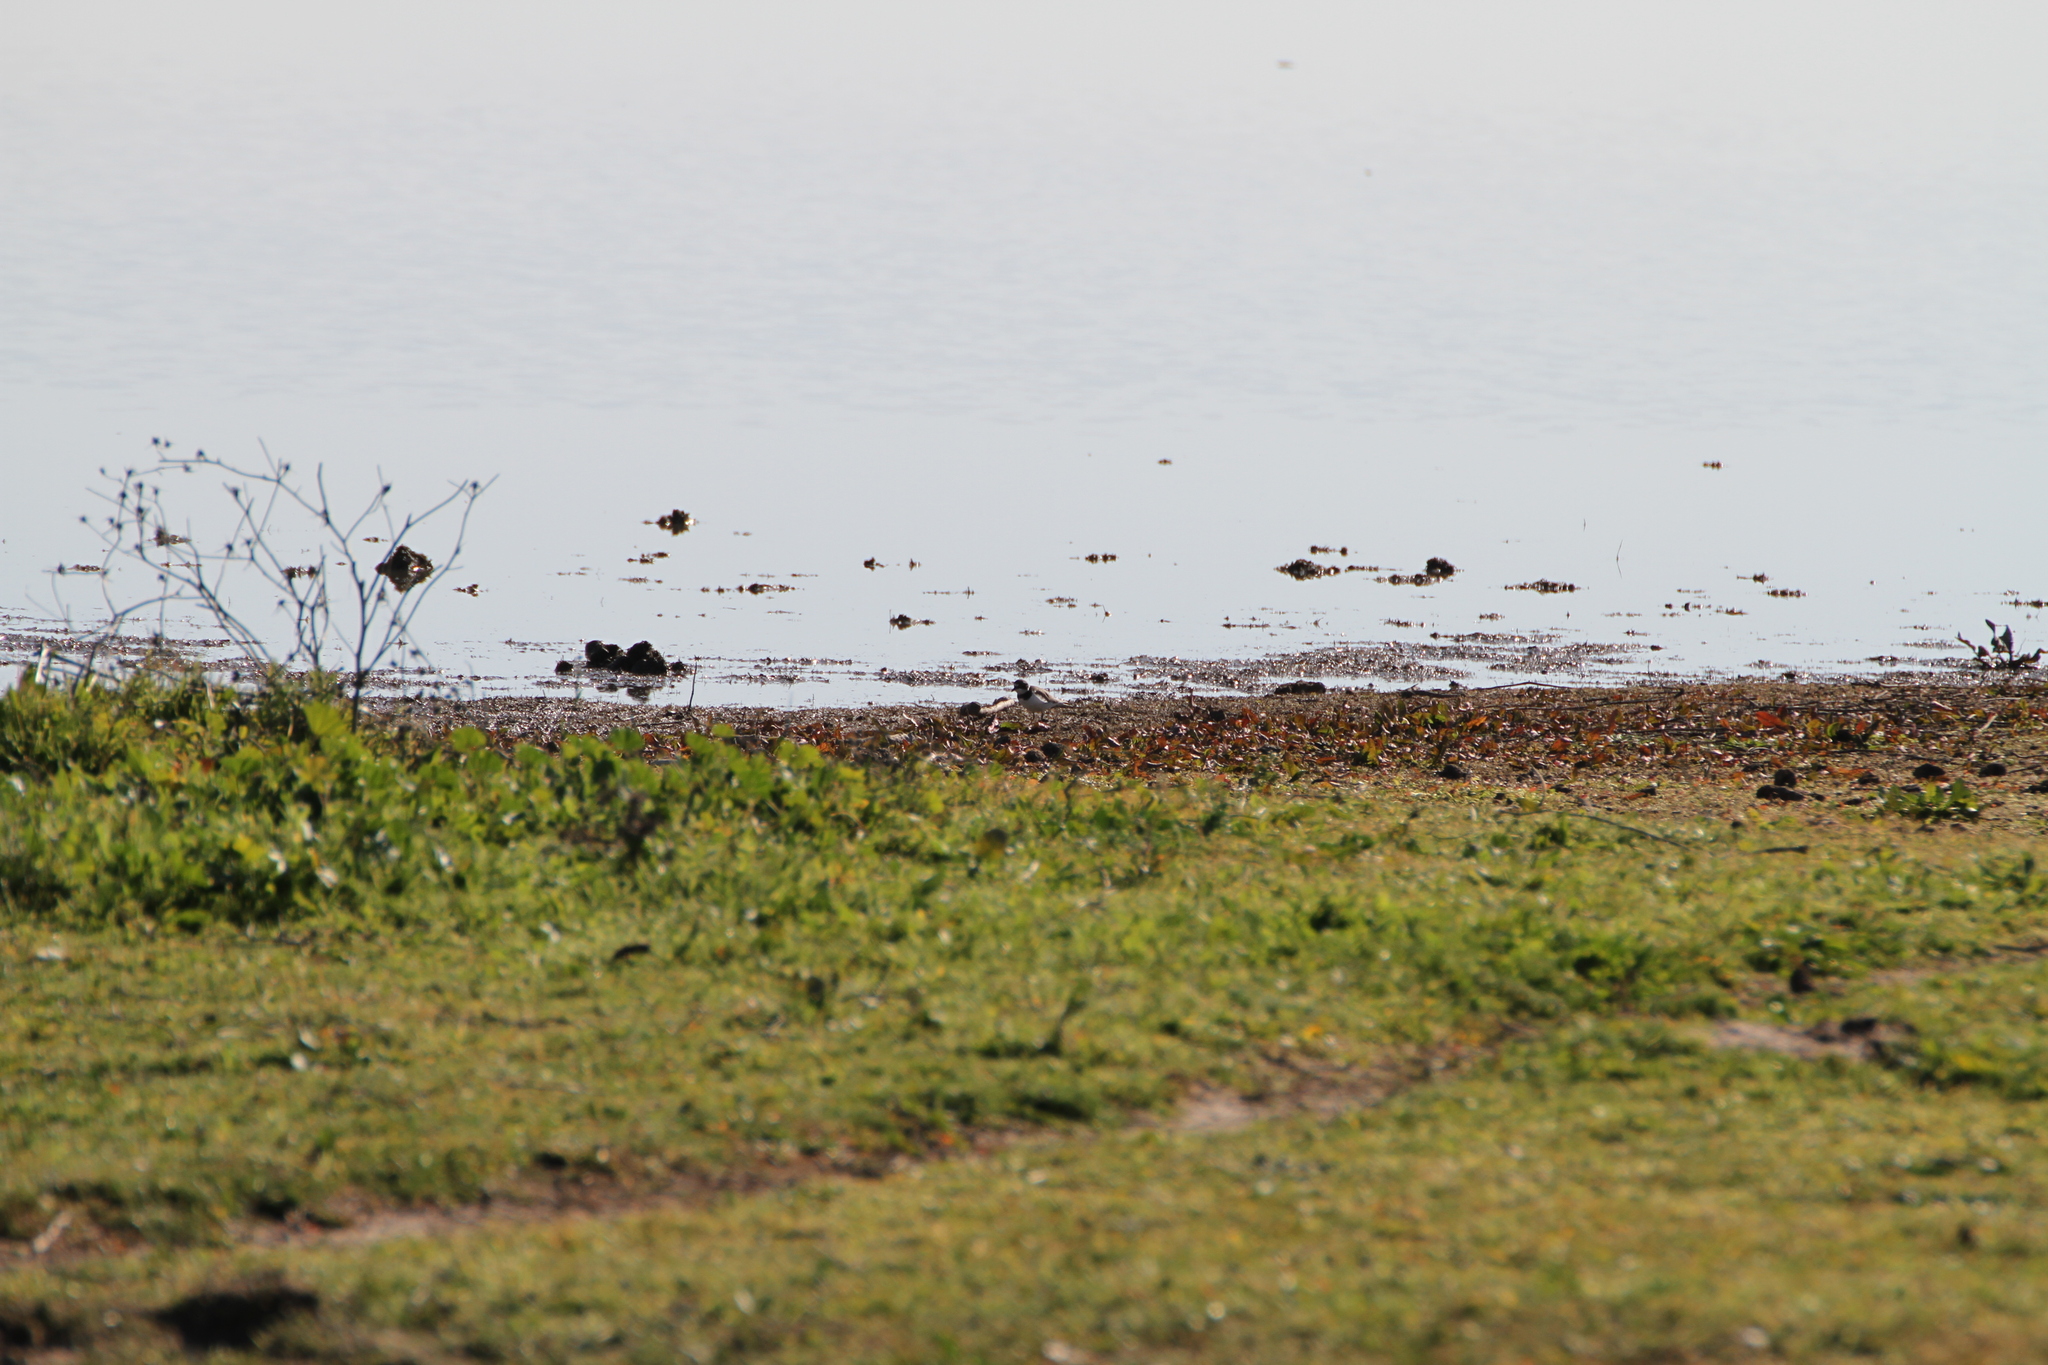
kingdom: Animalia
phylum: Chordata
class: Aves
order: Charadriiformes
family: Charadriidae
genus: Charadrius
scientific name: Charadrius dubius
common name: Little ringed plover
